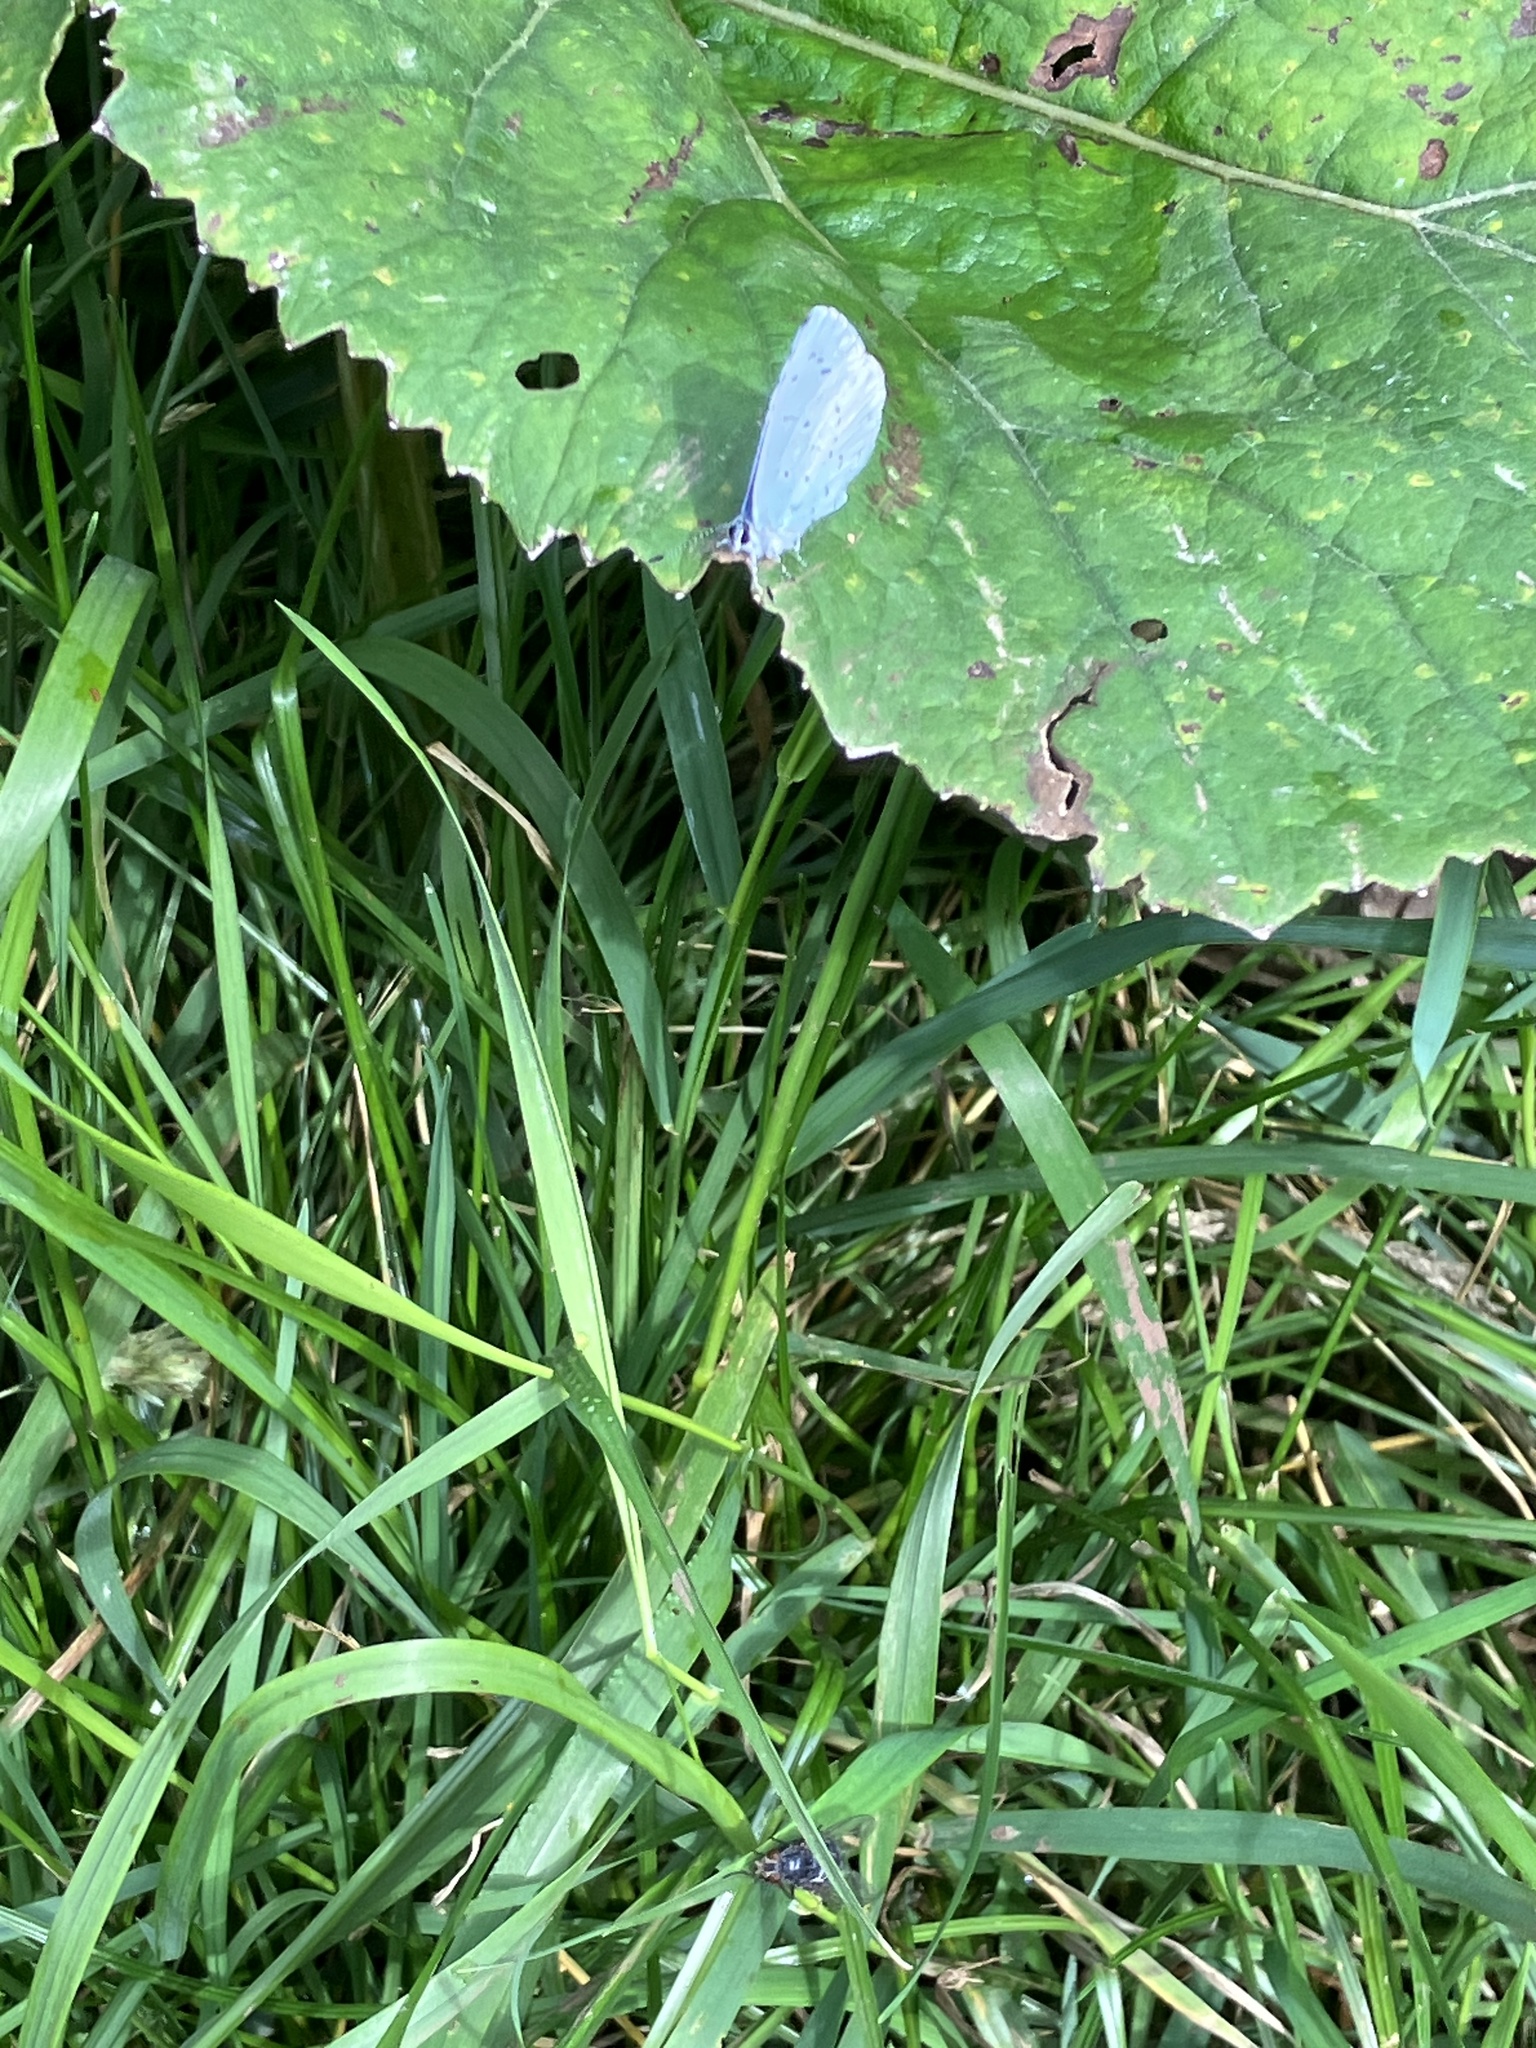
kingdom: Animalia
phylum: Arthropoda
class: Insecta
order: Lepidoptera
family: Lycaenidae
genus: Celastrina
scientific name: Celastrina argiolus
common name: Holly blue
